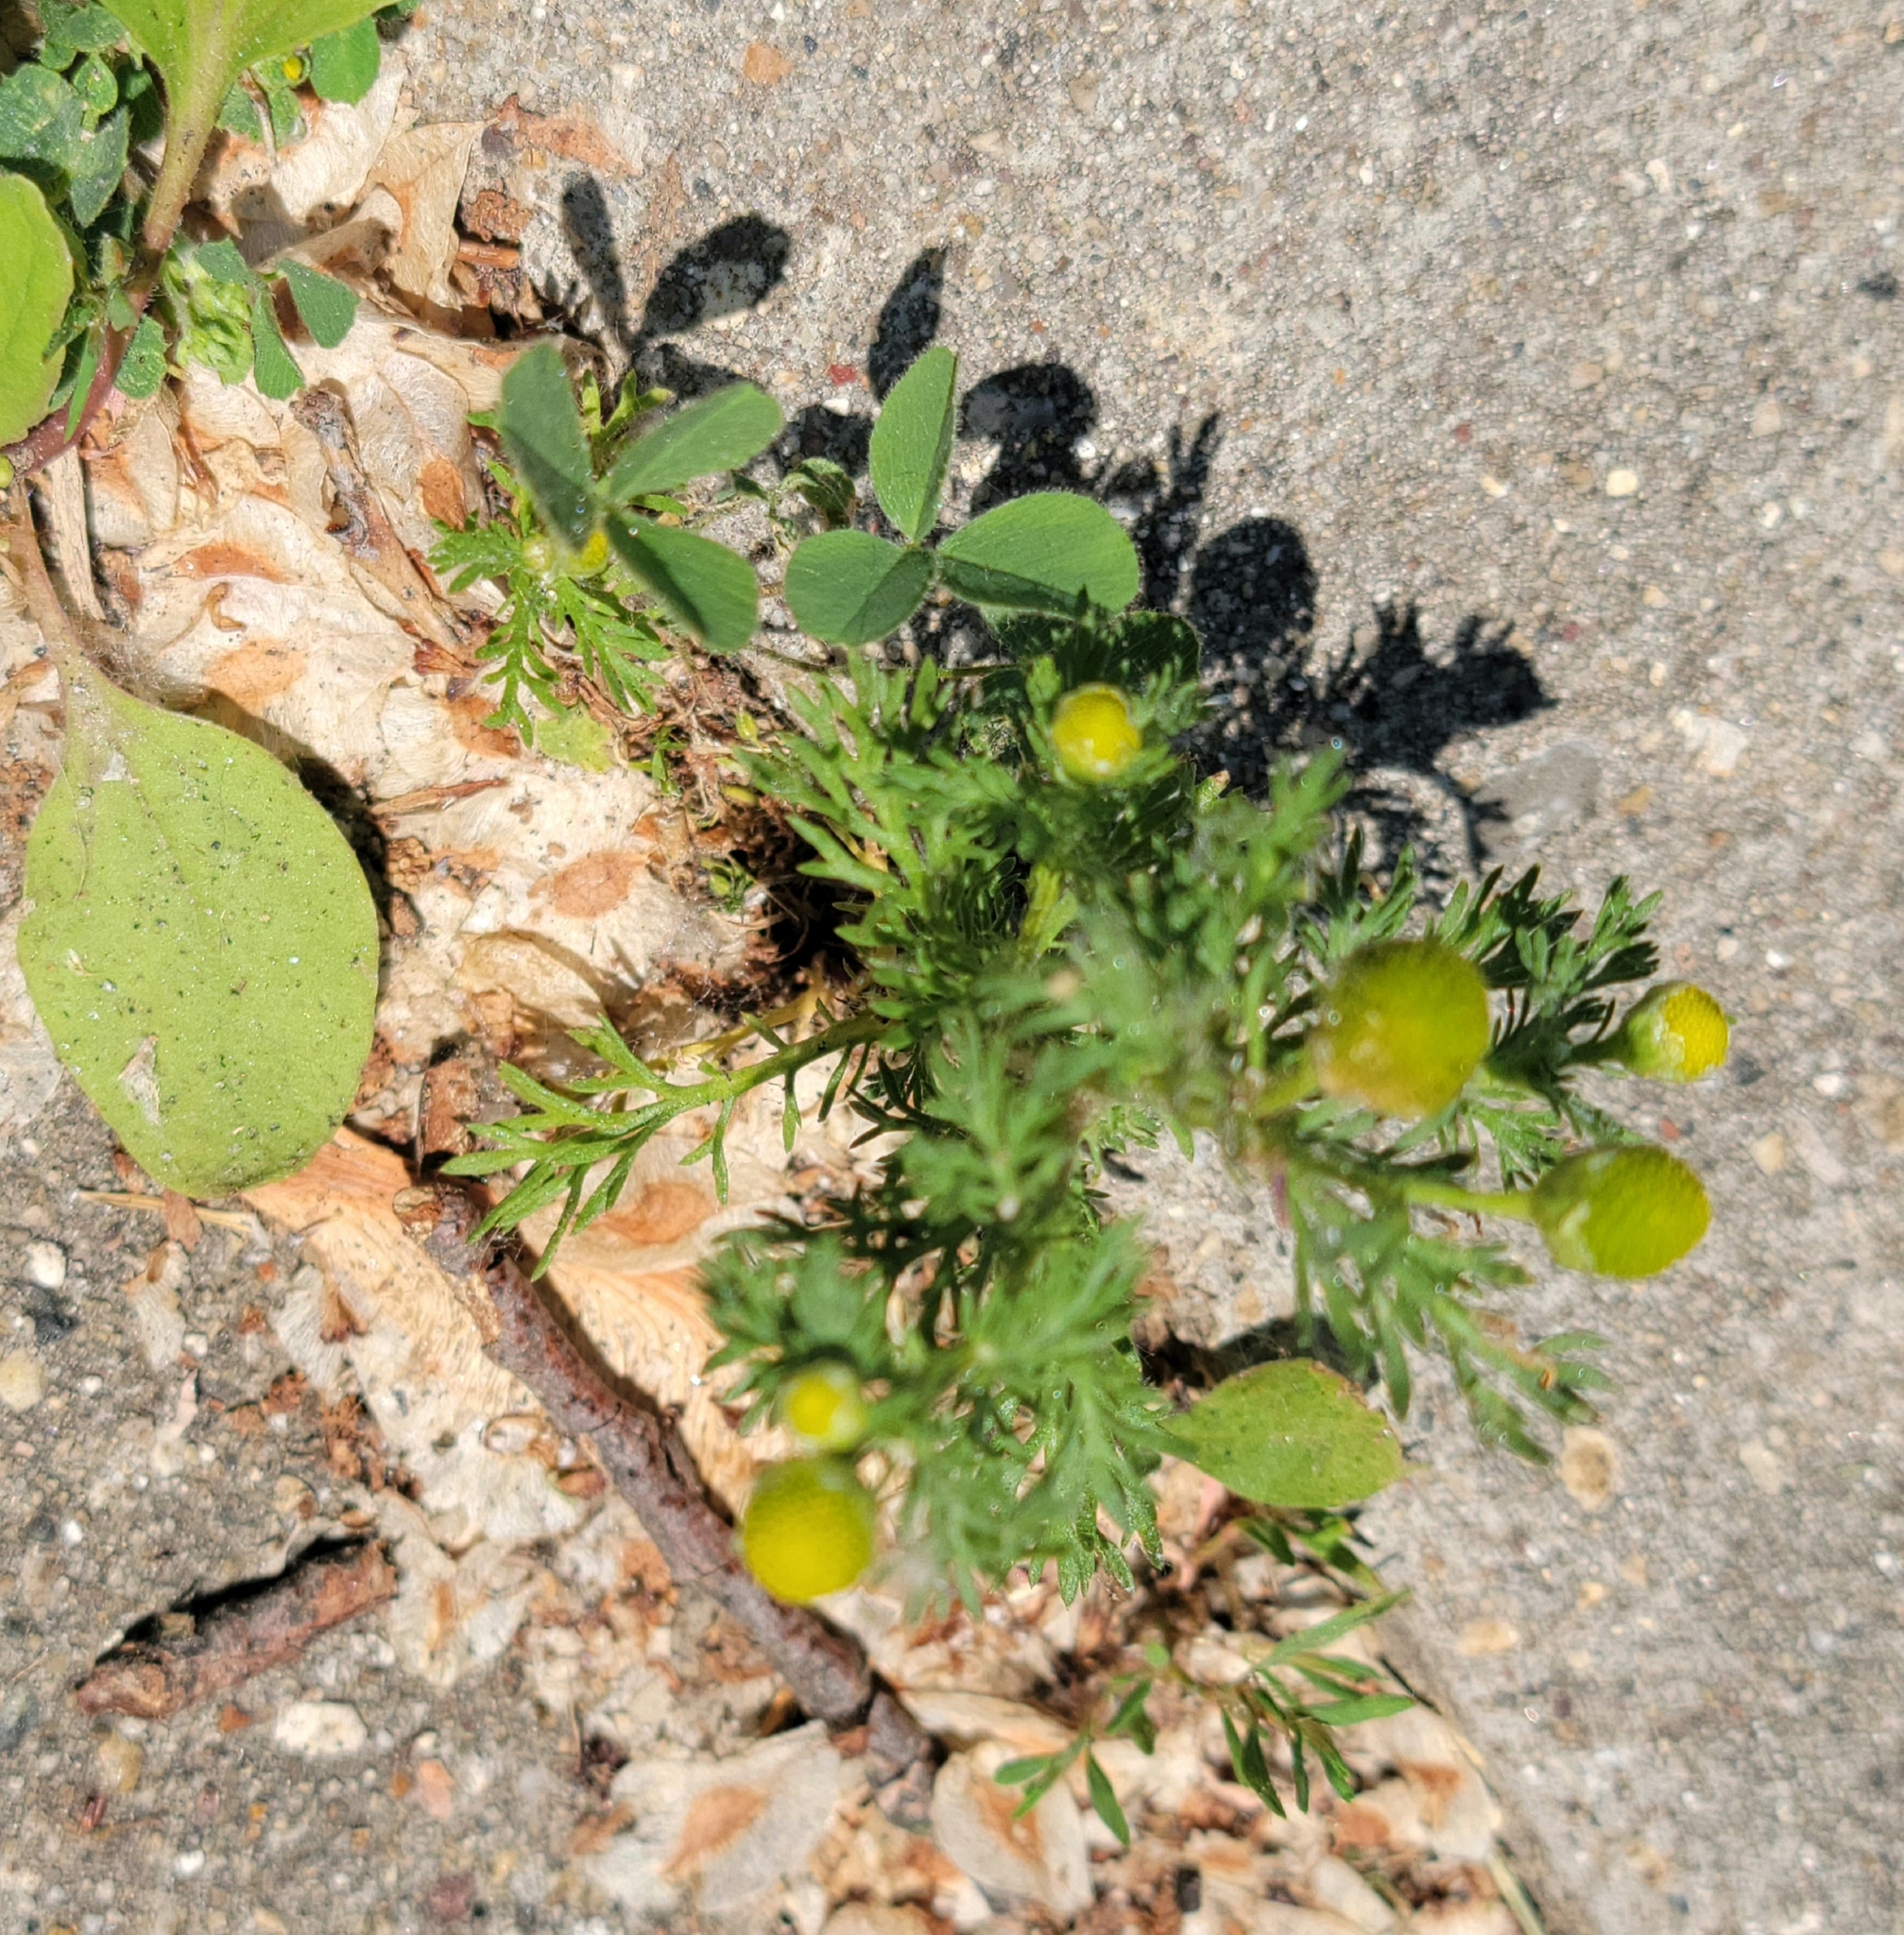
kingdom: Plantae
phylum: Tracheophyta
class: Magnoliopsida
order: Asterales
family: Asteraceae
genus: Matricaria
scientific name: Matricaria discoidea
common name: Disc mayweed
